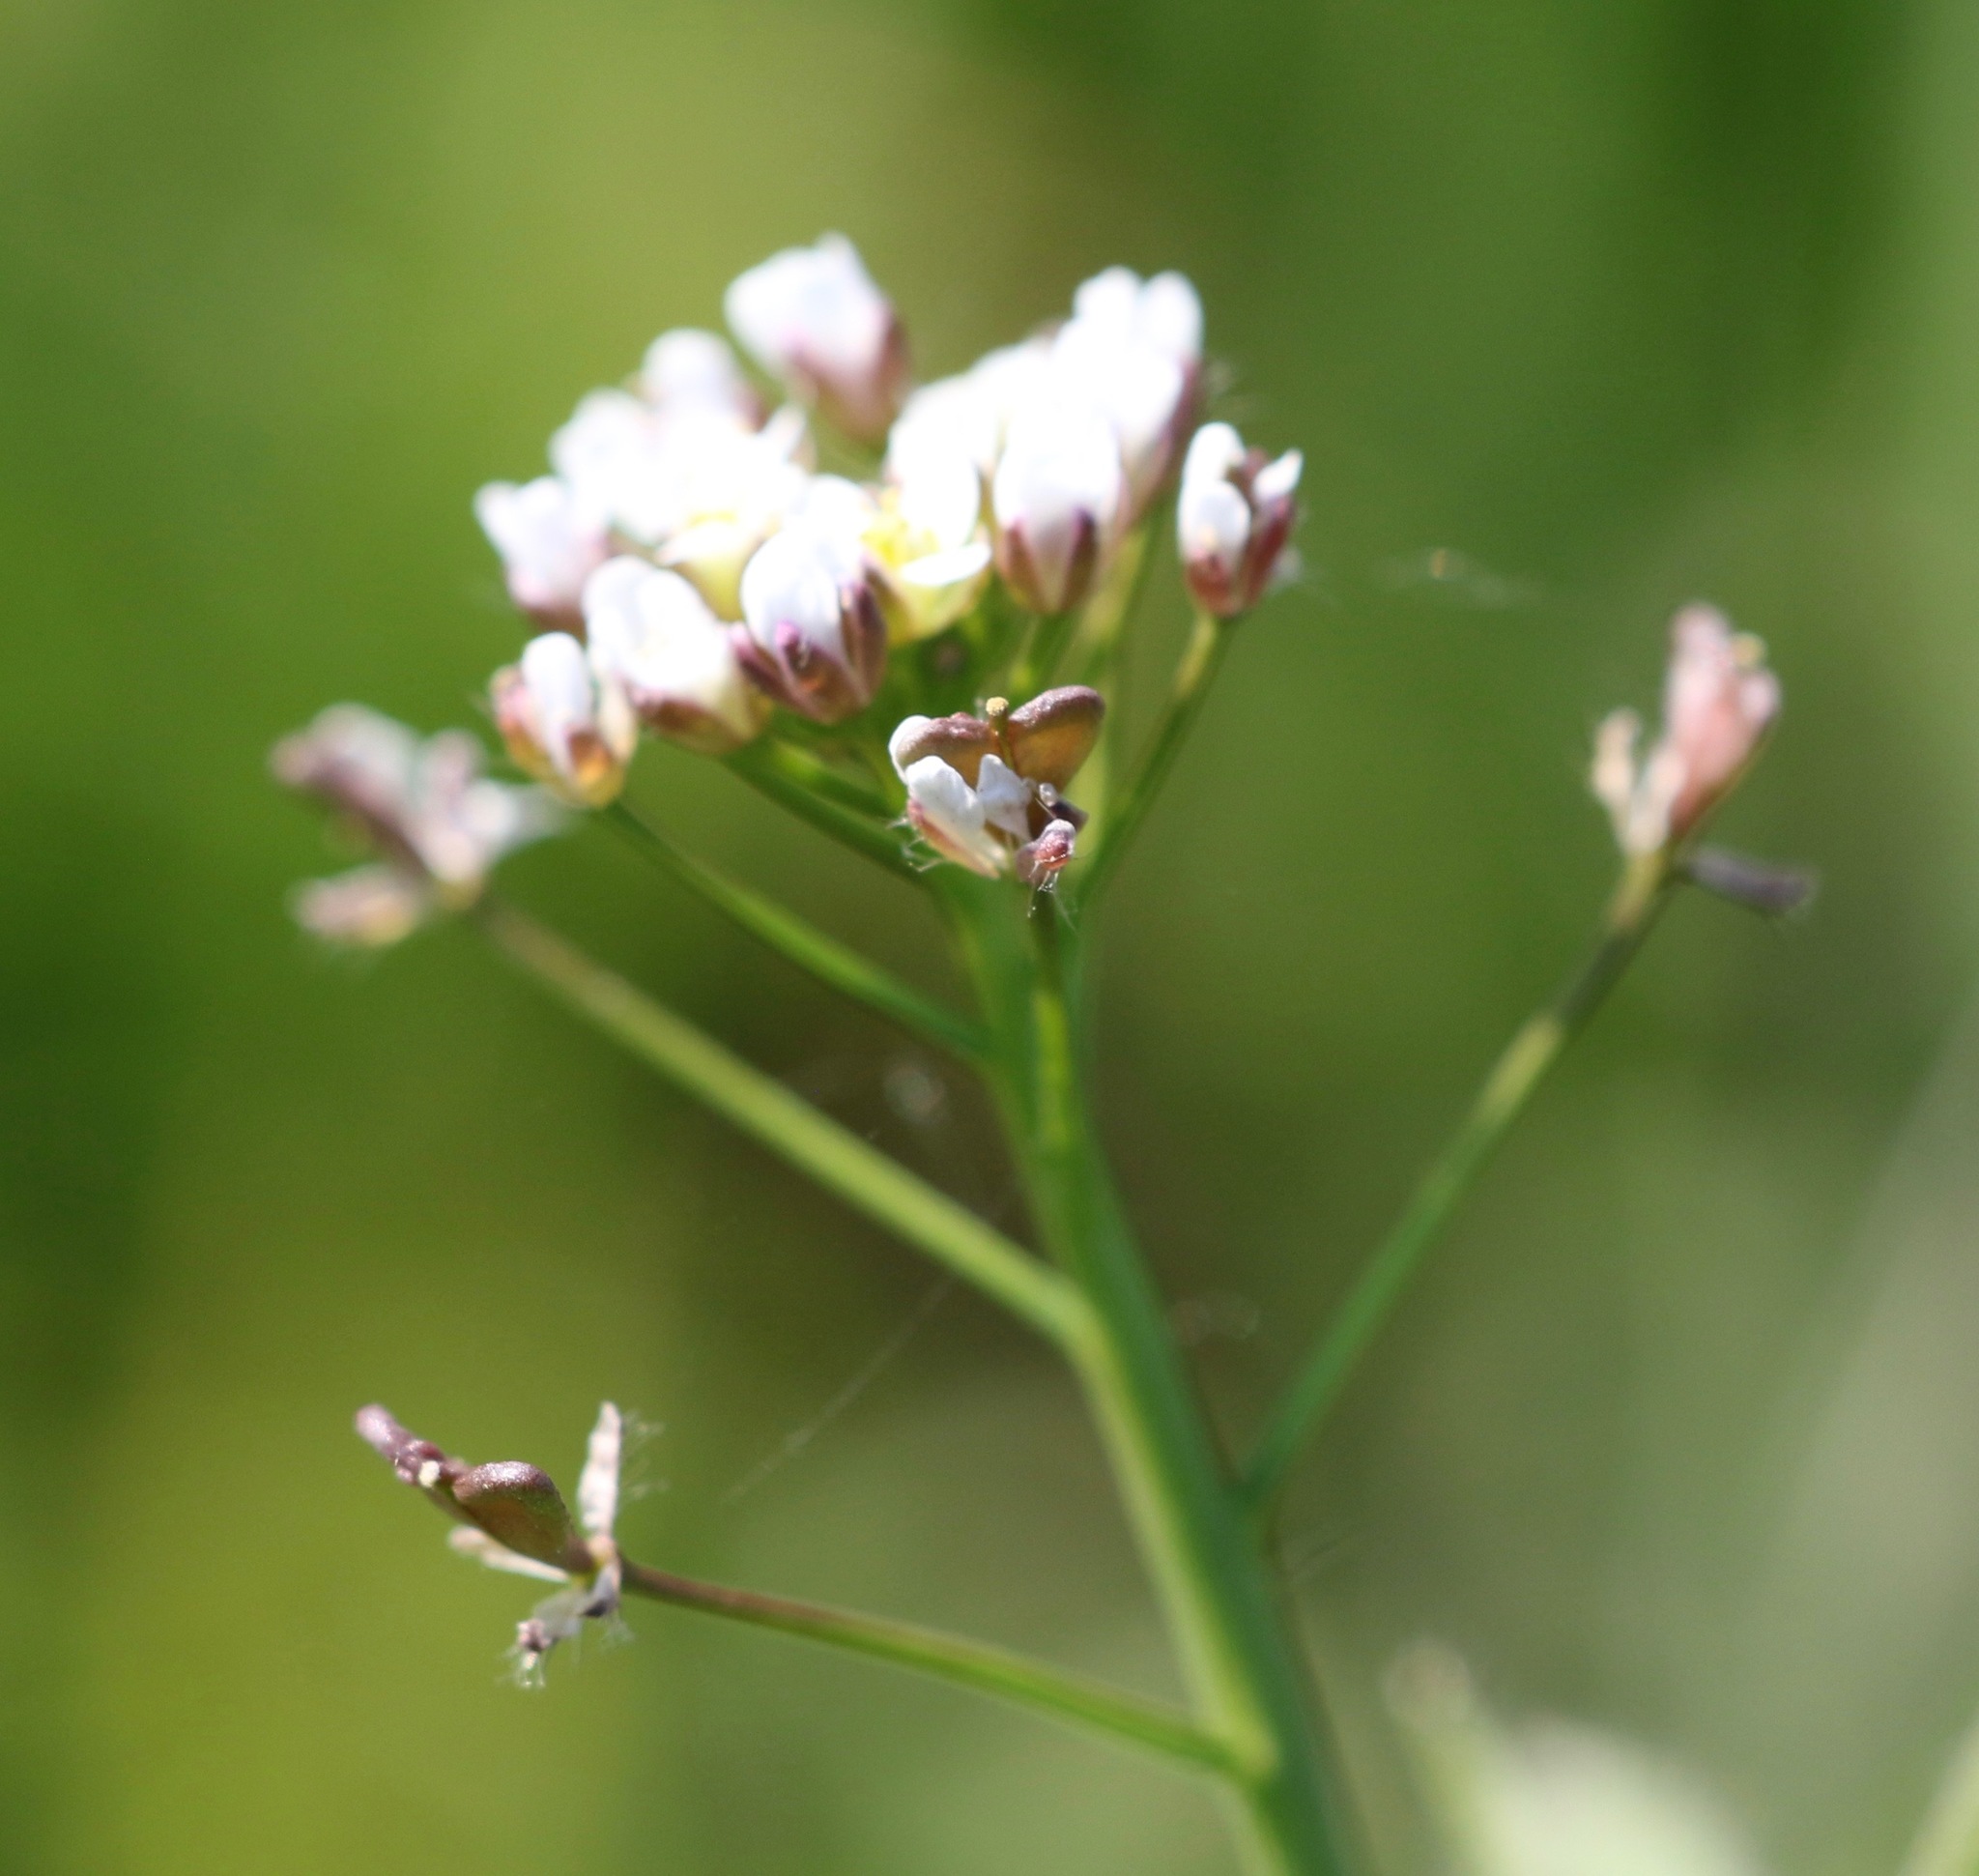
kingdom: Plantae
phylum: Tracheophyta
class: Magnoliopsida
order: Brassicales
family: Brassicaceae
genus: Capsella
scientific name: Capsella bursa-pastoris
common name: Shepherd's purse
